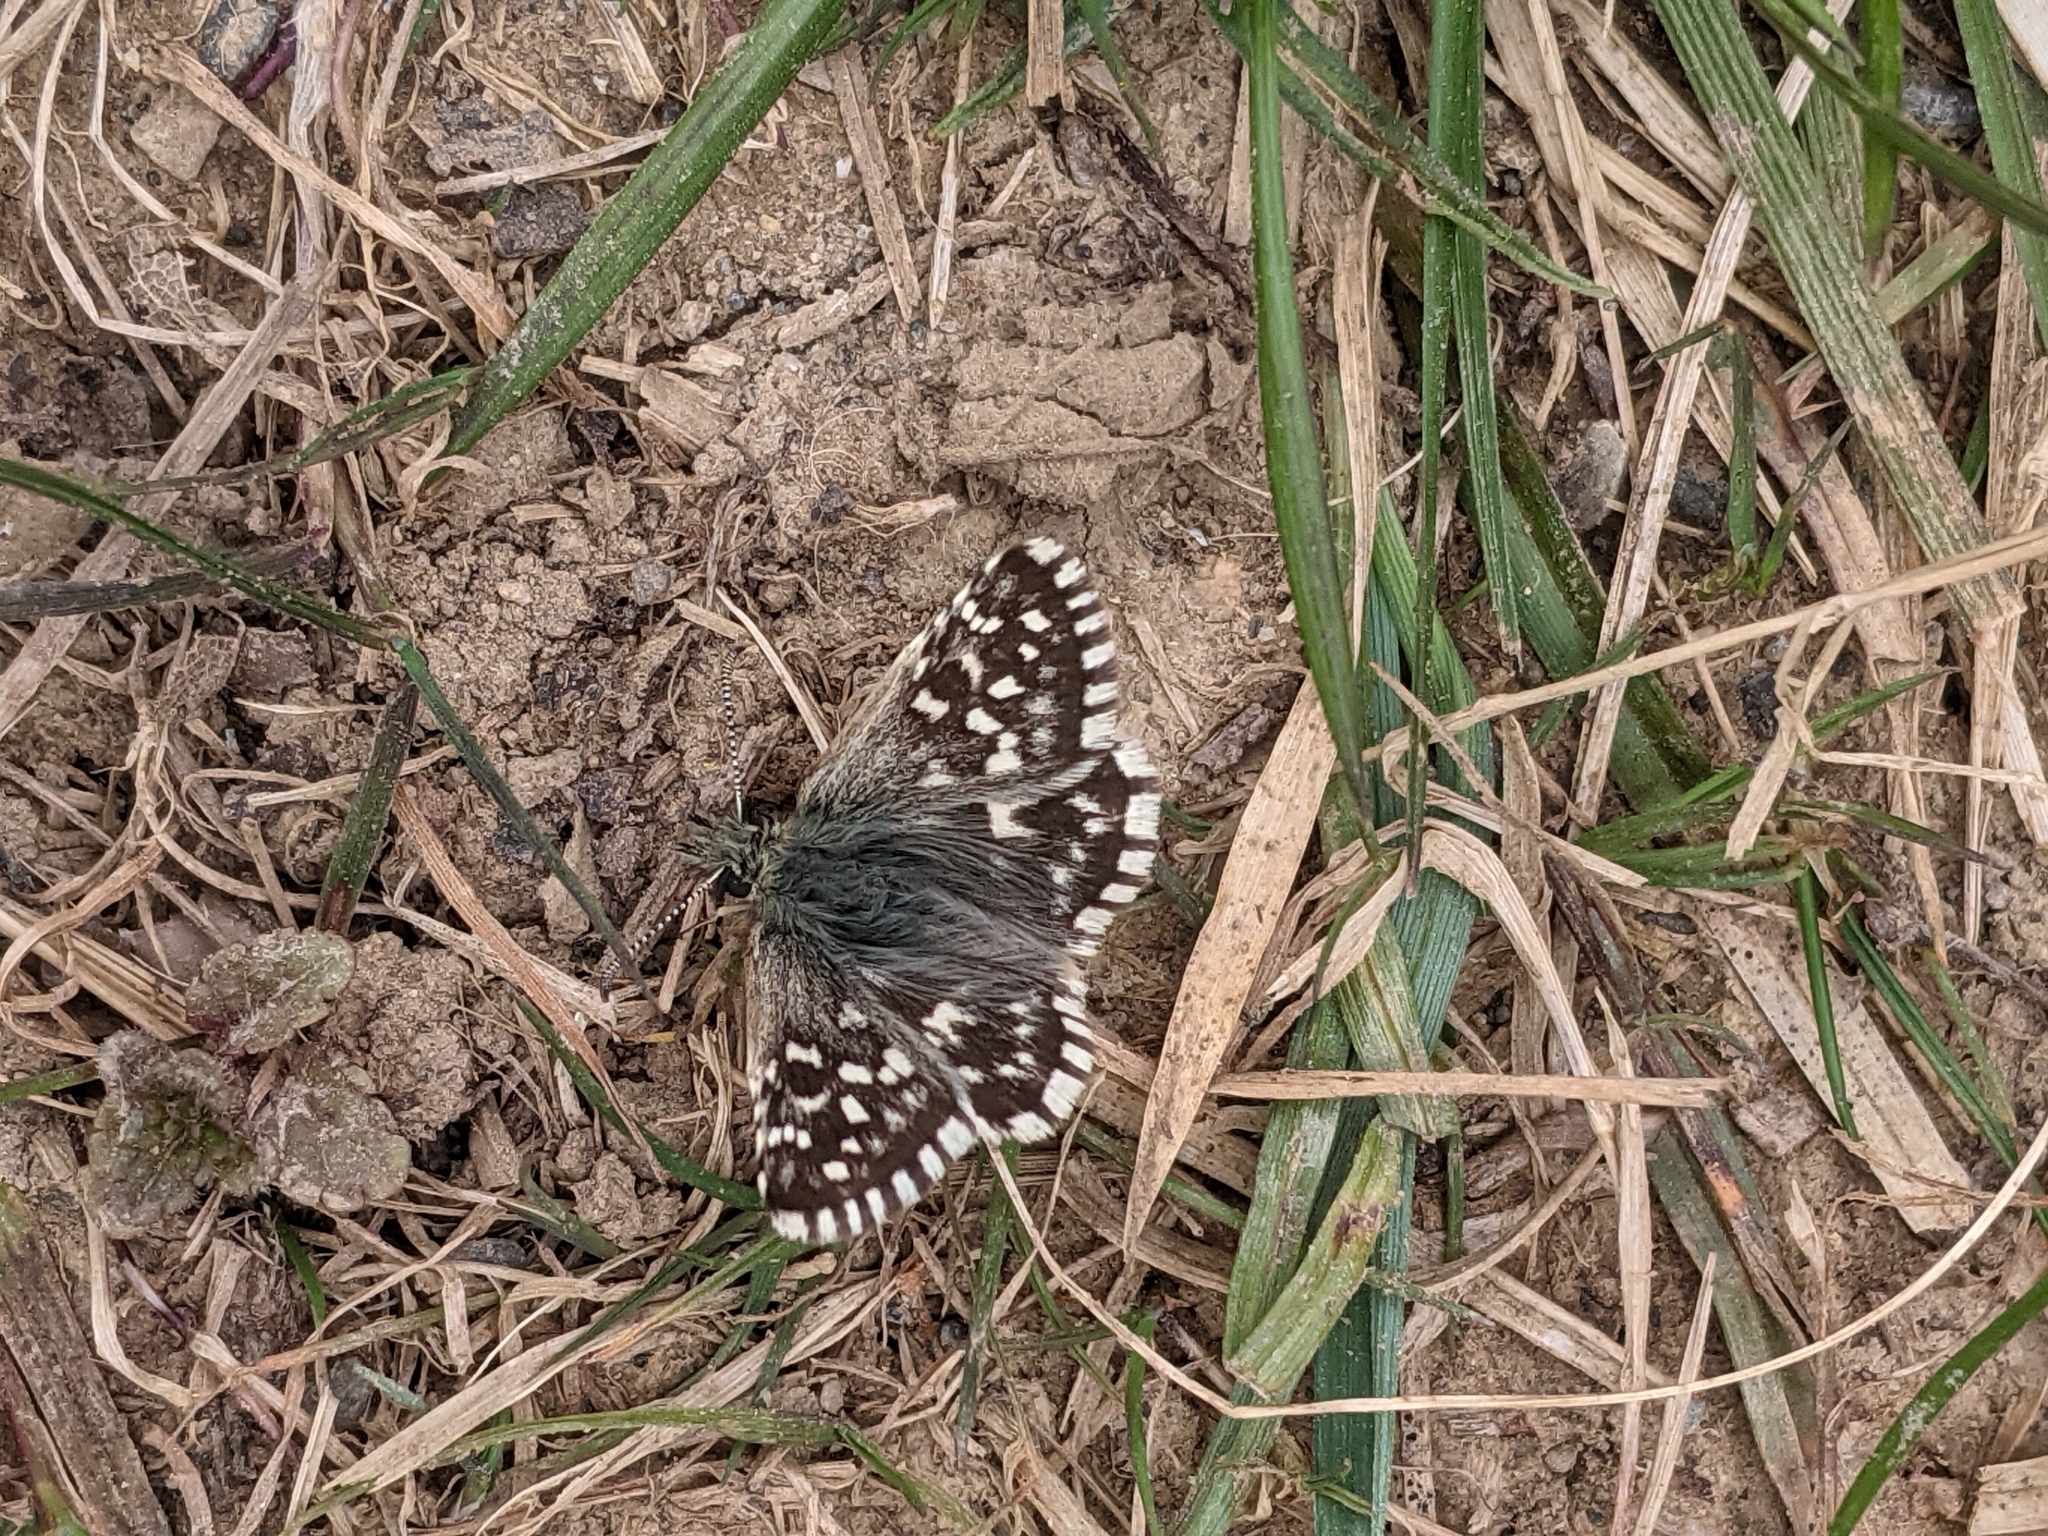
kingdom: Animalia
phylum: Arthropoda
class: Insecta
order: Lepidoptera
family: Hesperiidae
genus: Pyrgus
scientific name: Pyrgus malvae
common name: Grizzled skipper
